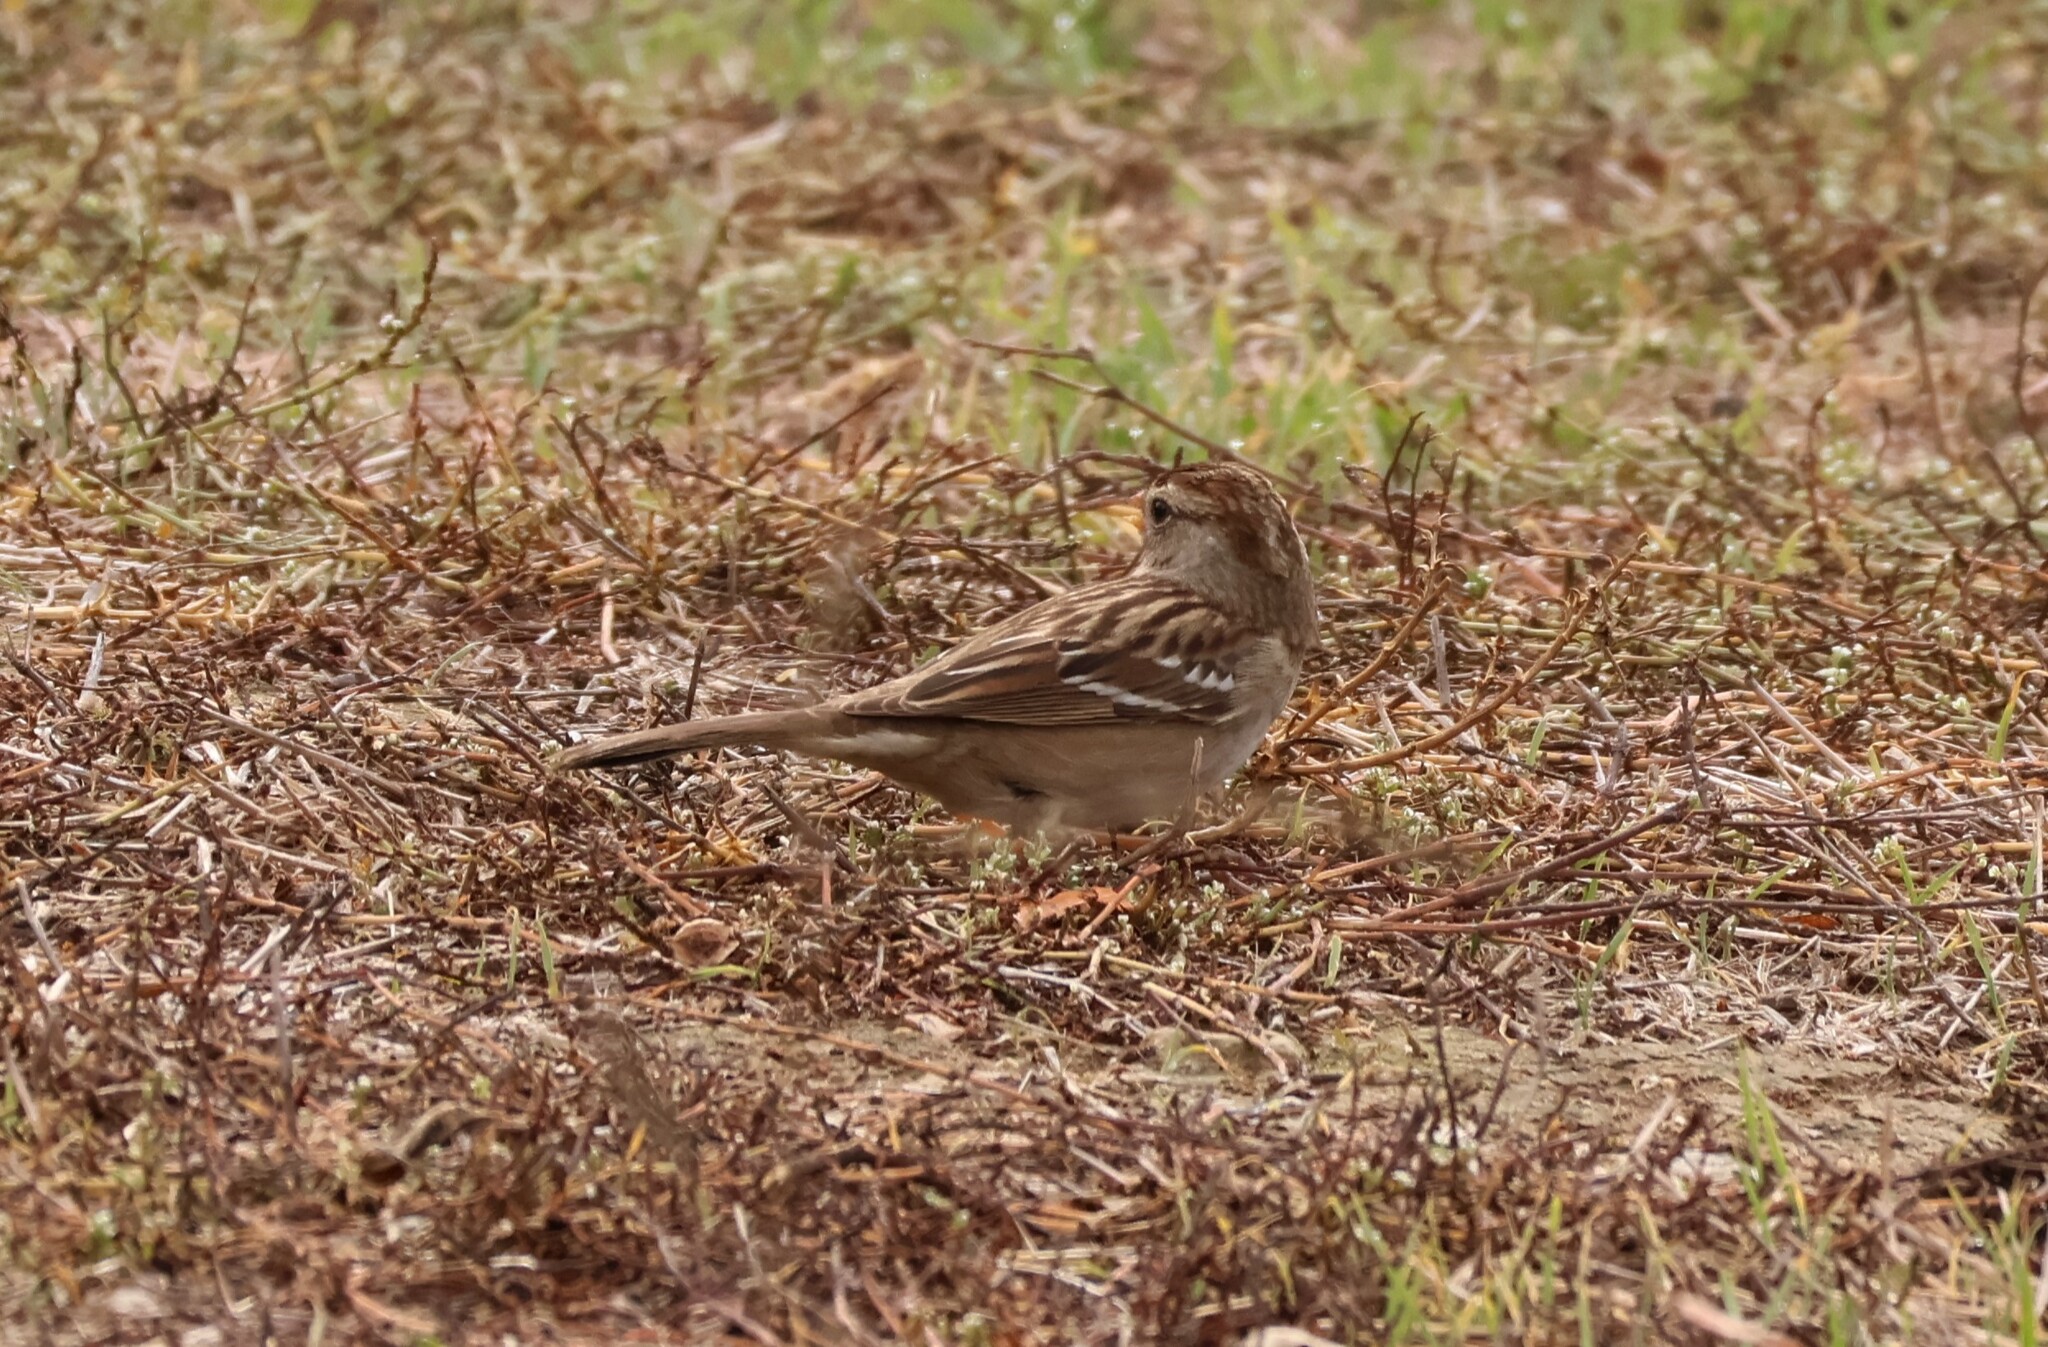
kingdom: Animalia
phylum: Chordata
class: Aves
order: Passeriformes
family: Passerellidae
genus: Zonotrichia
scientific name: Zonotrichia leucophrys
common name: White-crowned sparrow
